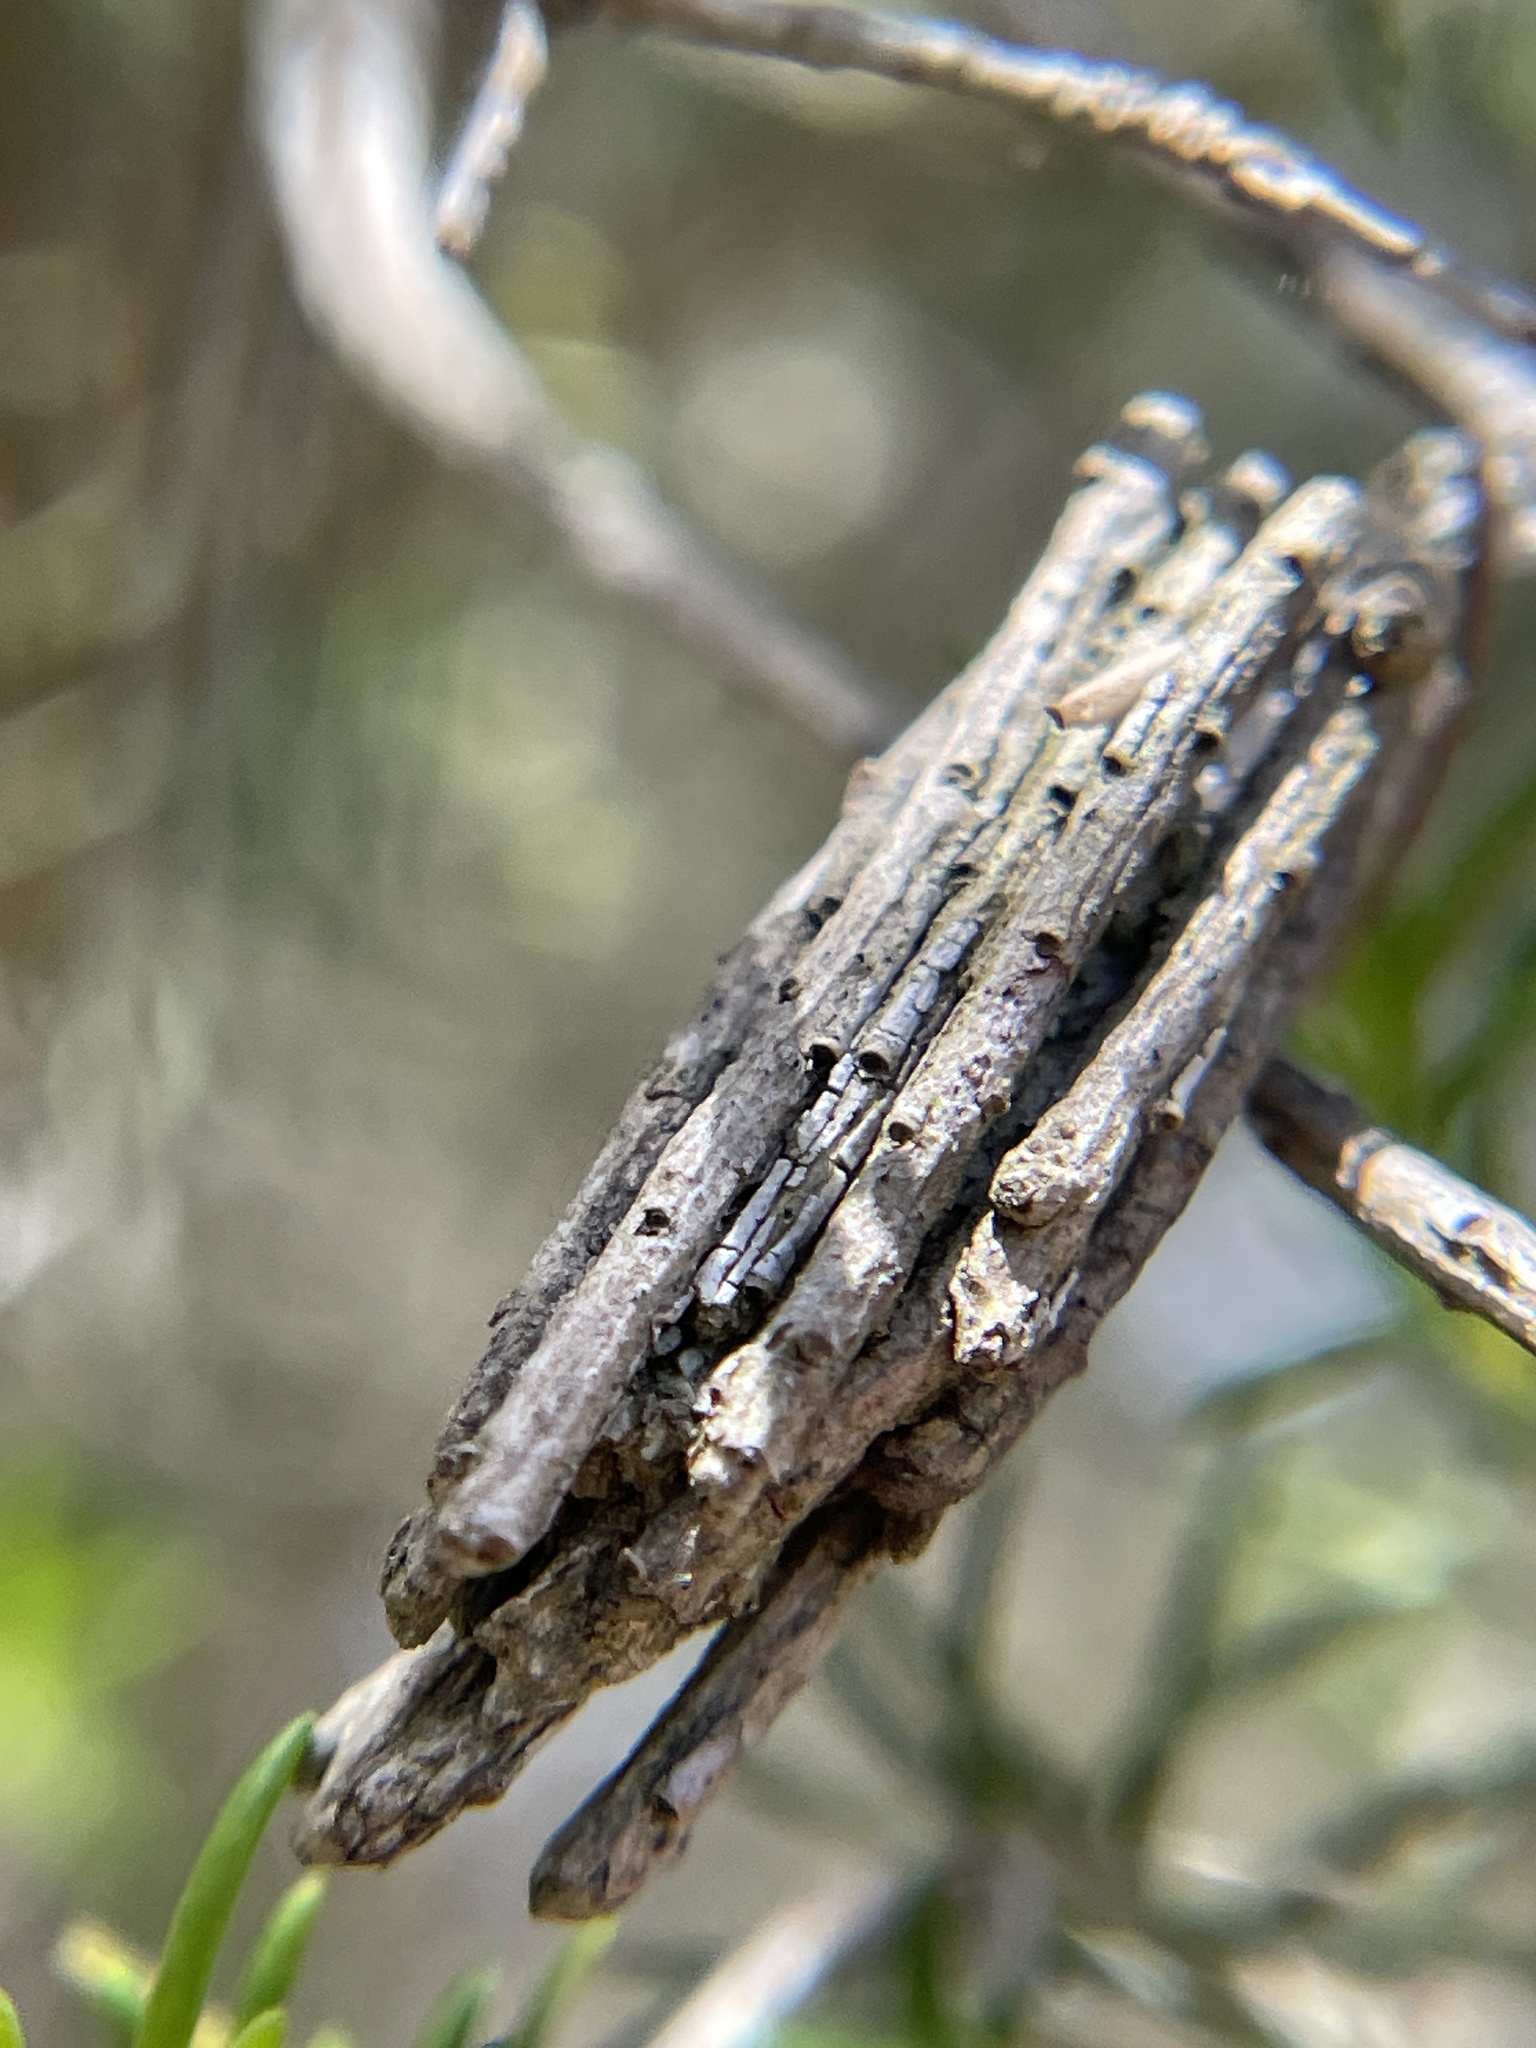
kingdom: Animalia
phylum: Arthropoda
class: Insecta
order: Lepidoptera
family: Psychidae
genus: Clania
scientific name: Clania
